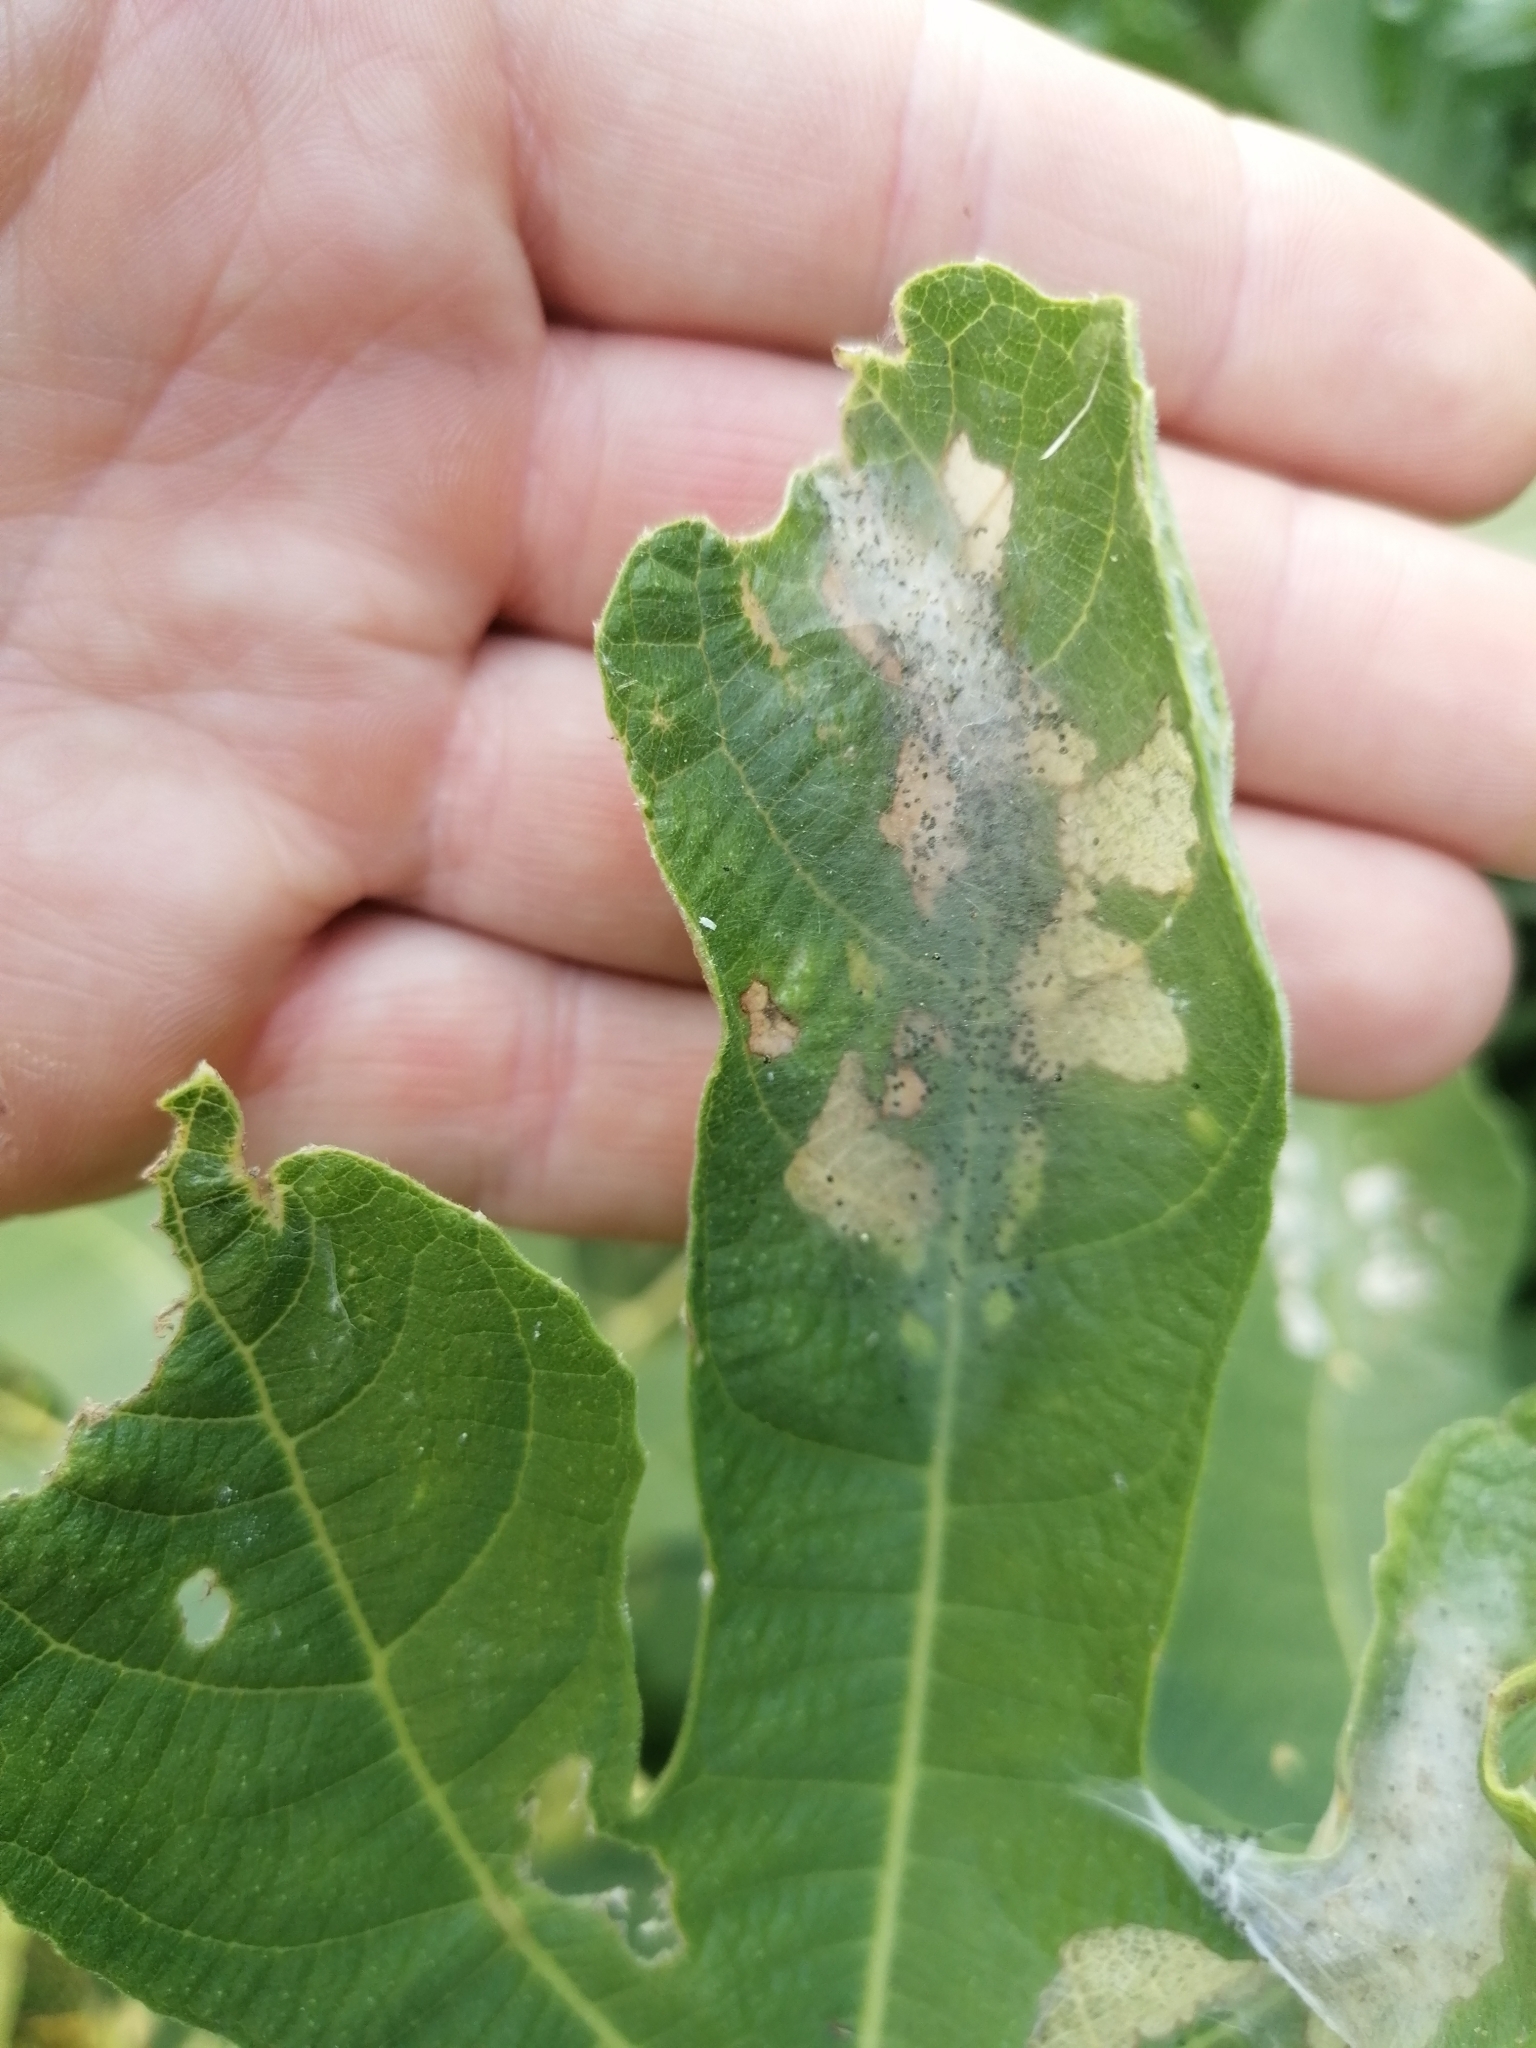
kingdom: Animalia
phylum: Arthropoda
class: Insecta
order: Lepidoptera
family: Choreutidae
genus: Anthophila
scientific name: Anthophila nemorana
